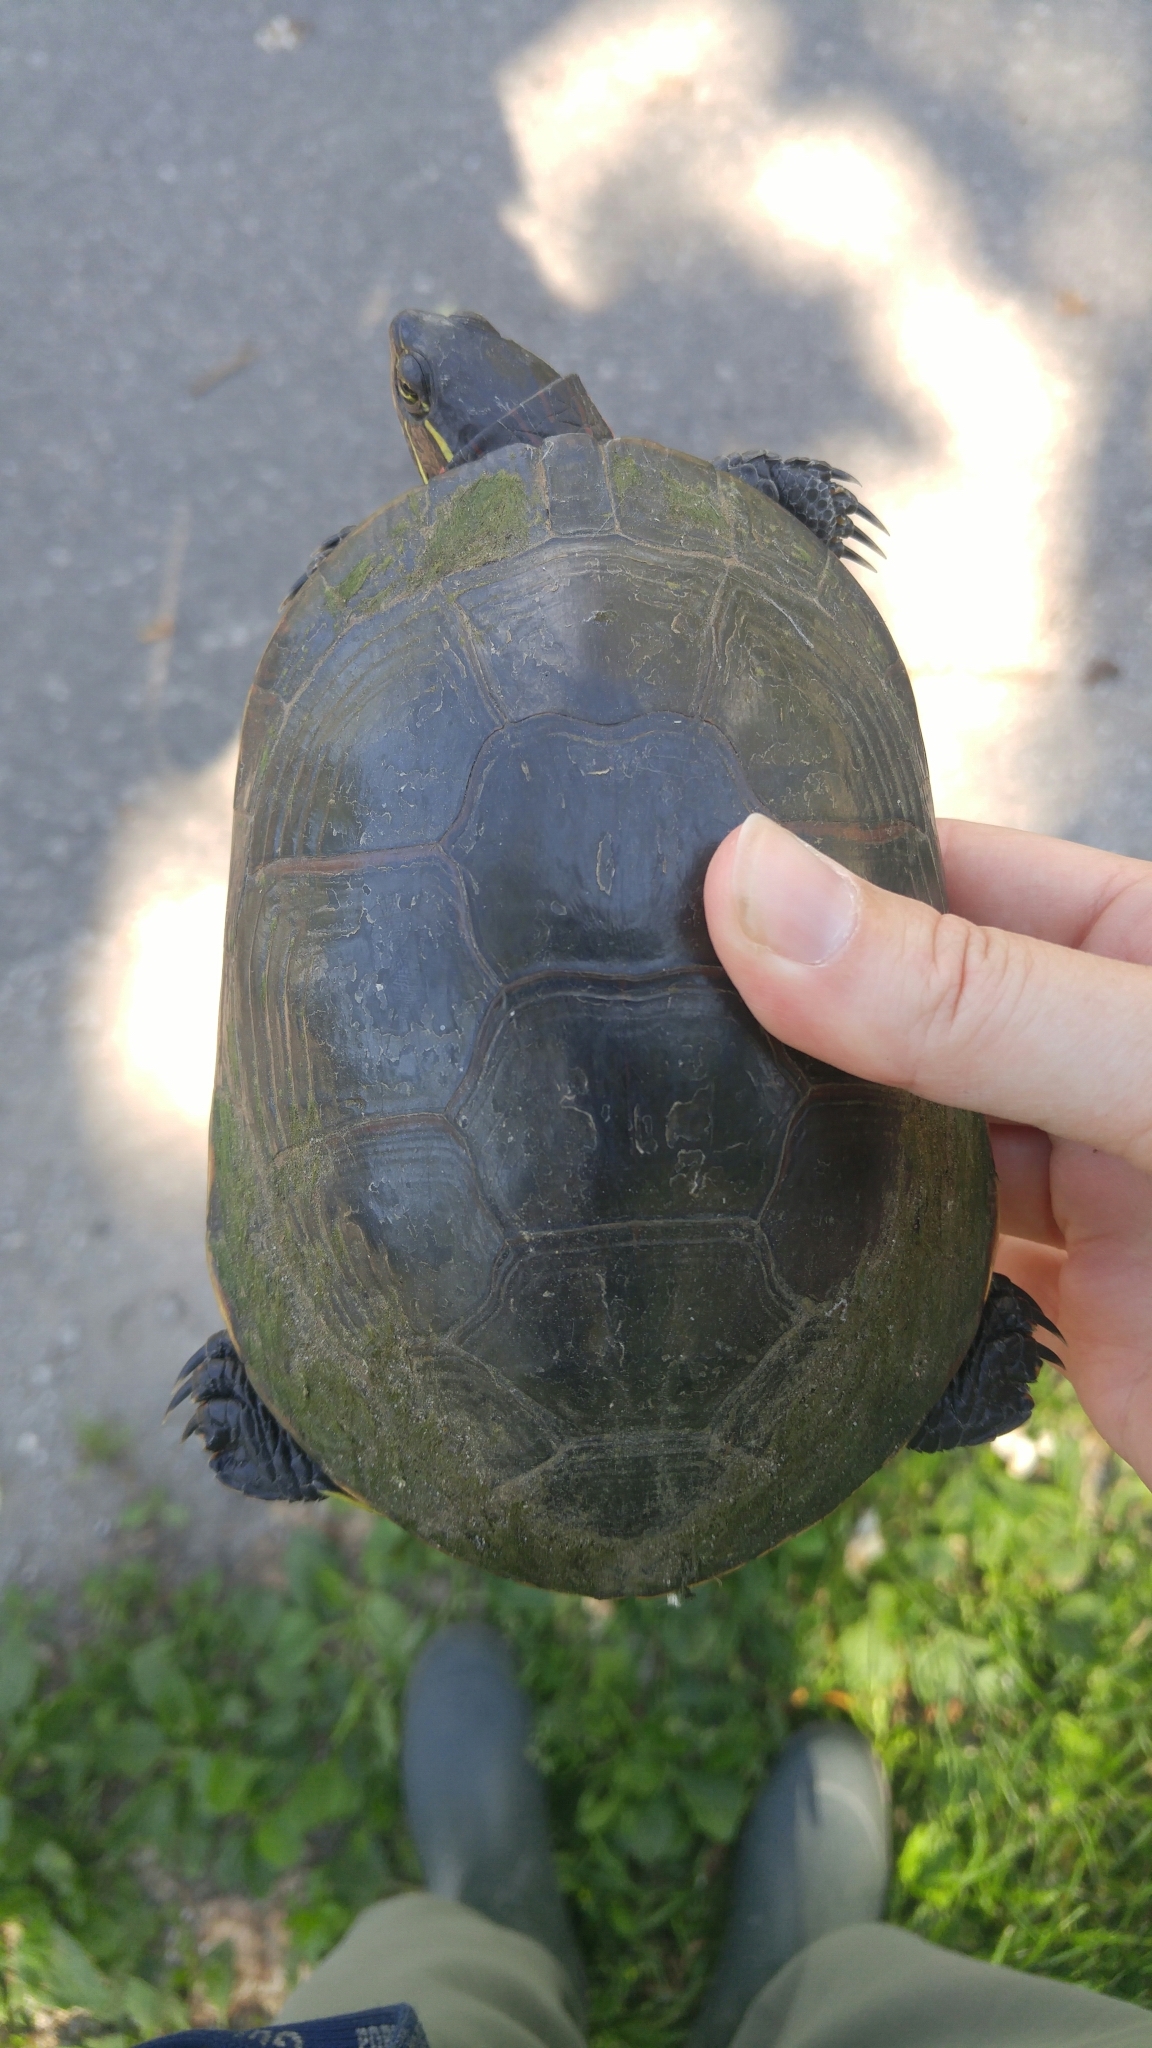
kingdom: Animalia
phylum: Chordata
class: Testudines
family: Emydidae
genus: Chrysemys
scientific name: Chrysemys picta
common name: Painted turtle
